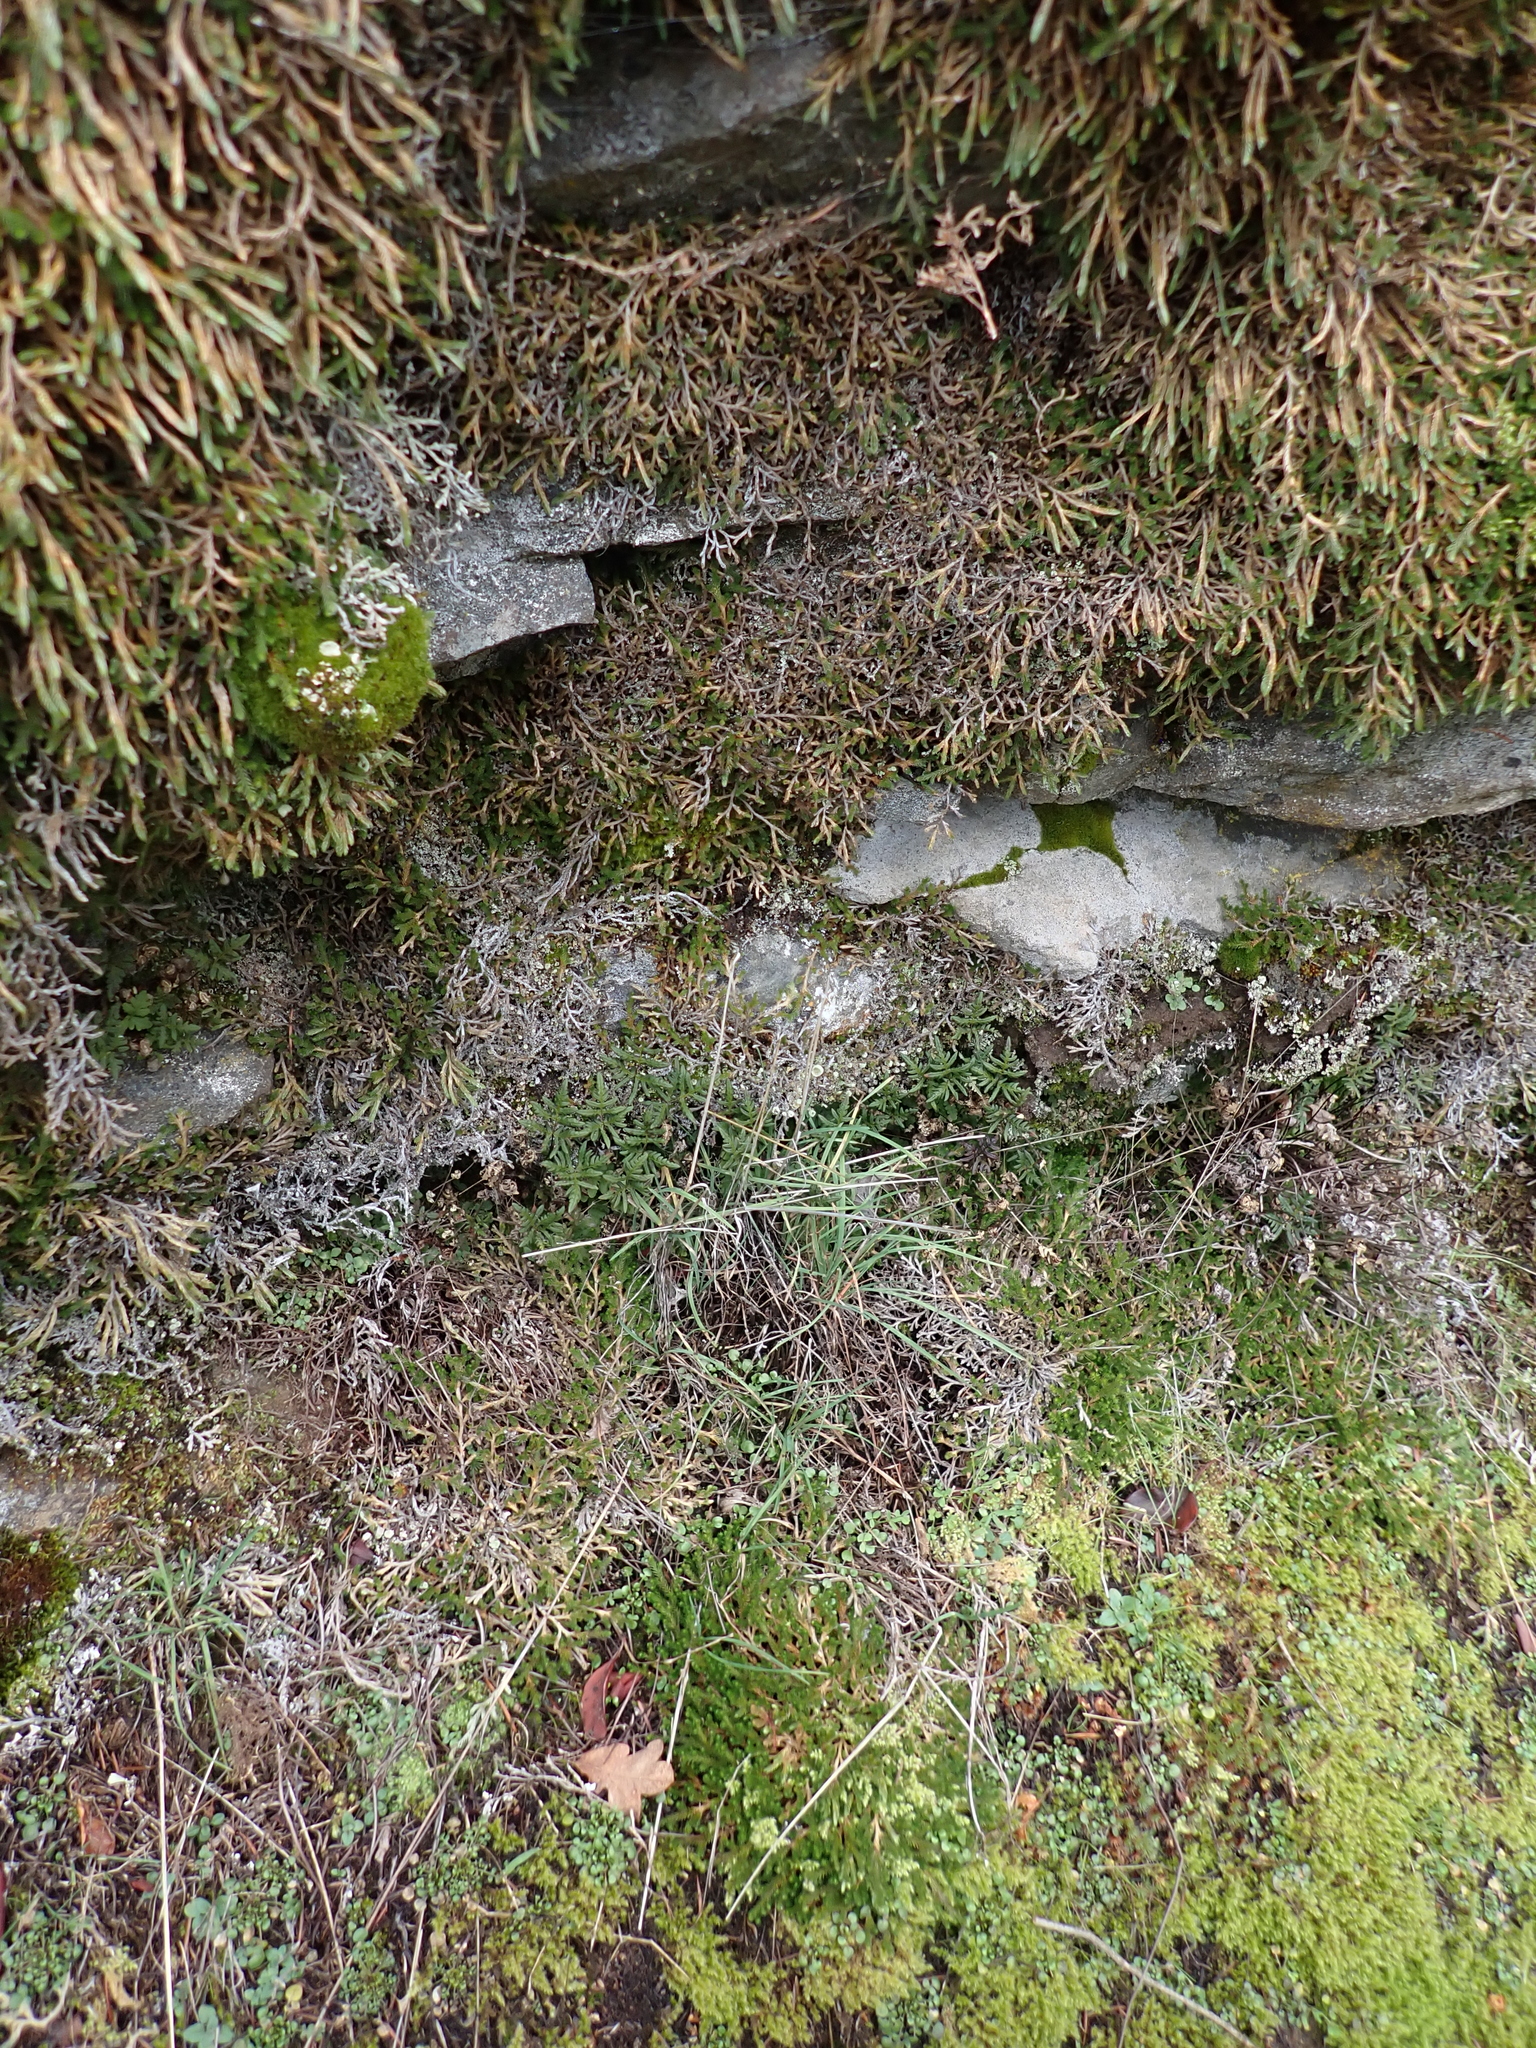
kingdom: Plantae
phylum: Tracheophyta
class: Polypodiopsida
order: Polypodiales
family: Pteridaceae
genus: Pentagramma
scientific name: Pentagramma triangularis
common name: Gold fern
